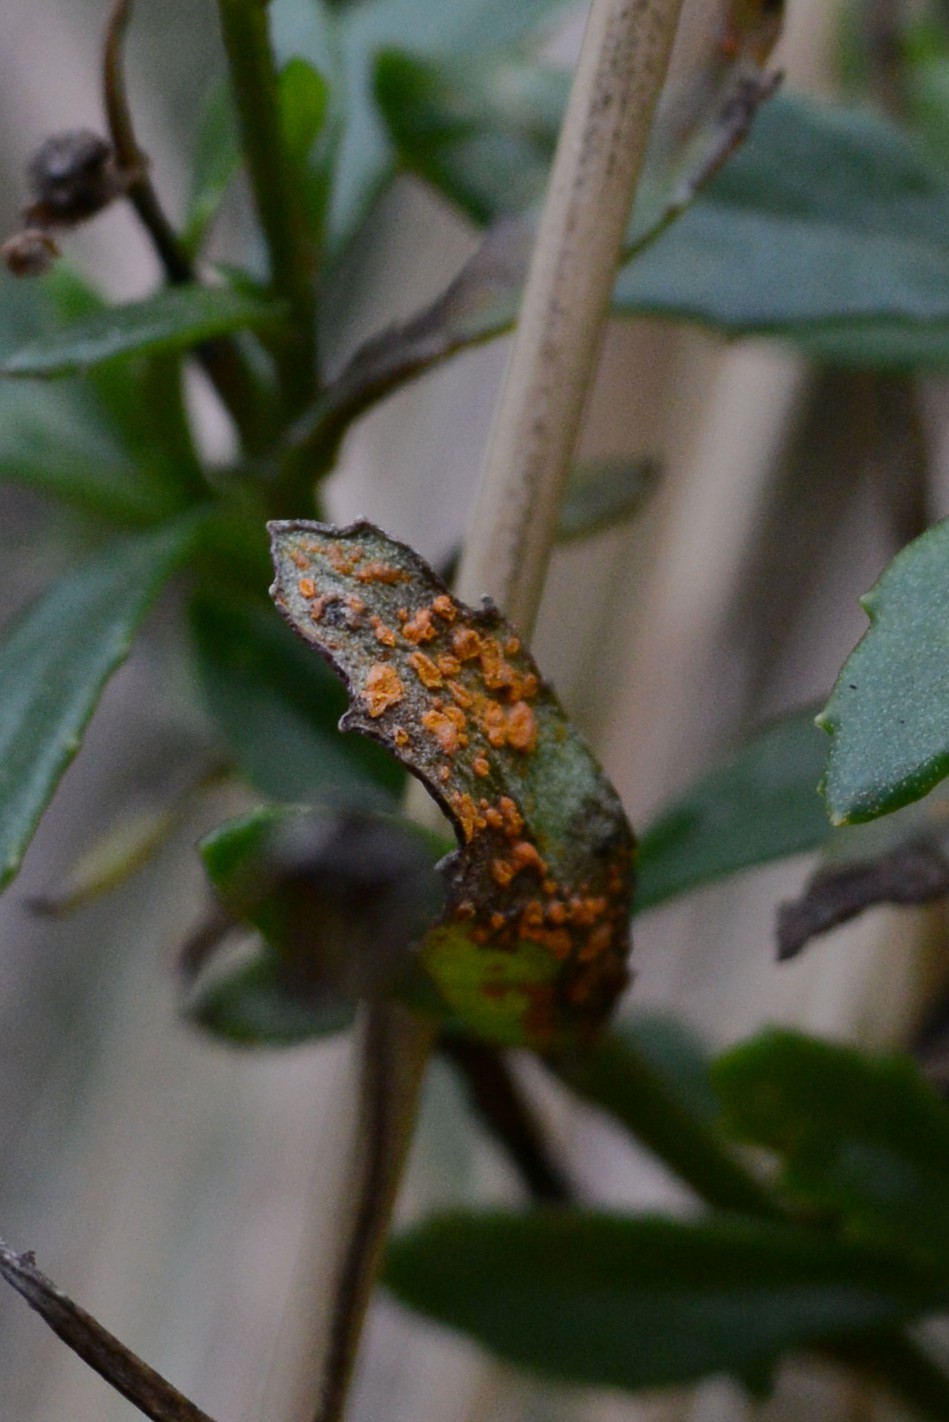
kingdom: Fungi
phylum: Basidiomycota
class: Pucciniomycetes
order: Pucciniales
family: Coleosporiaceae
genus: Coleosporium
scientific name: Coleosporium tussilaginis
